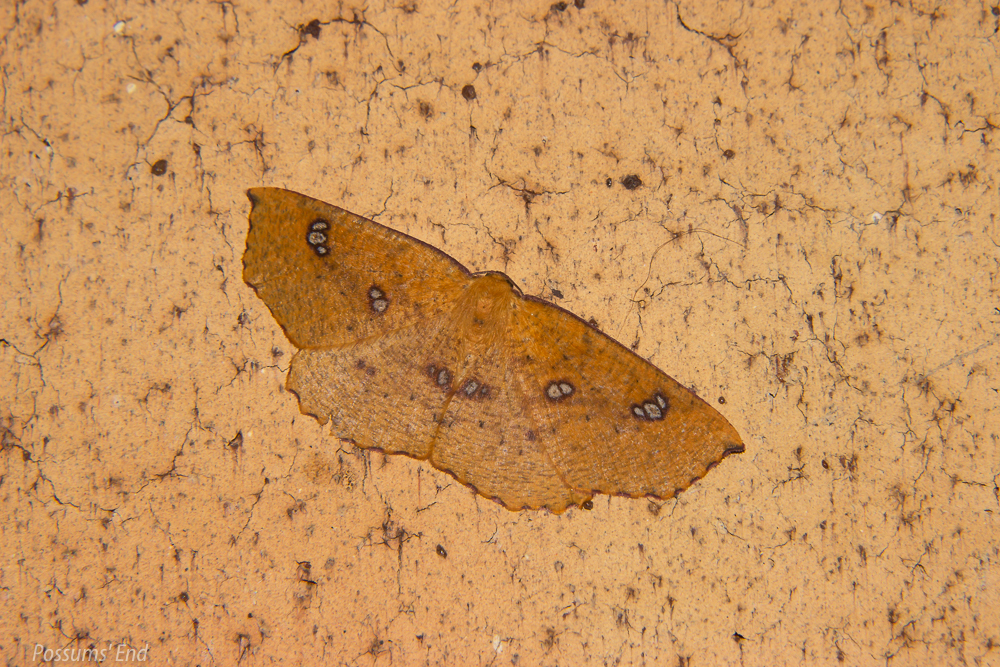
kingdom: Animalia
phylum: Arthropoda
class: Insecta
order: Lepidoptera
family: Geometridae
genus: Xyridacma
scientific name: Xyridacma alectoraria
